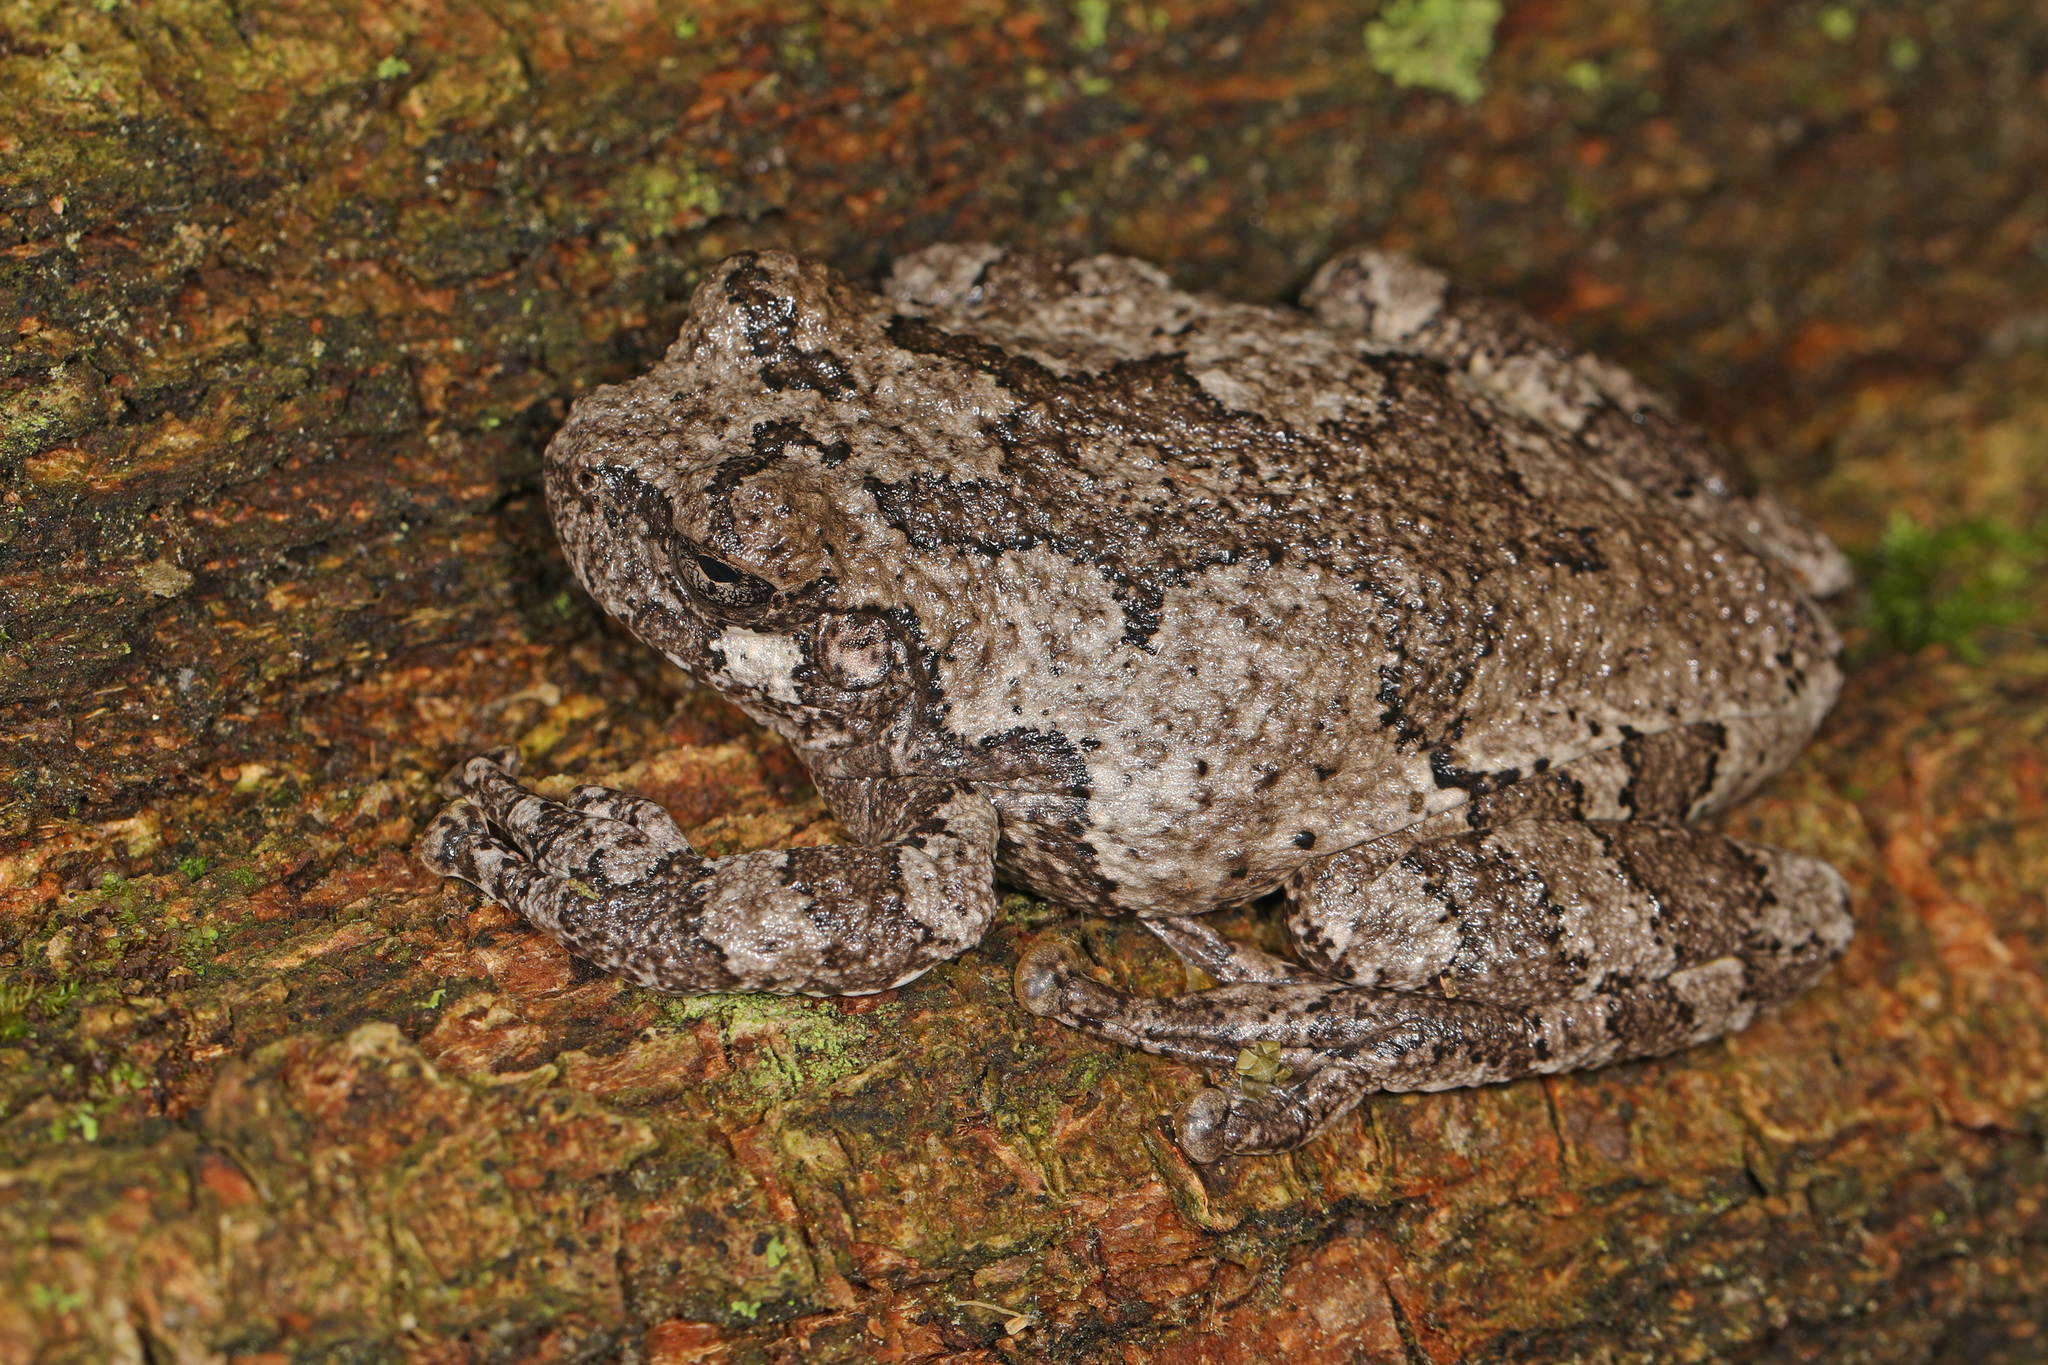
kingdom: Animalia
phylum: Chordata
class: Amphibia
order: Anura
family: Hylidae
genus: Dryophytes
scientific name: Dryophytes chrysoscelis
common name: Cope's gray treefrog
